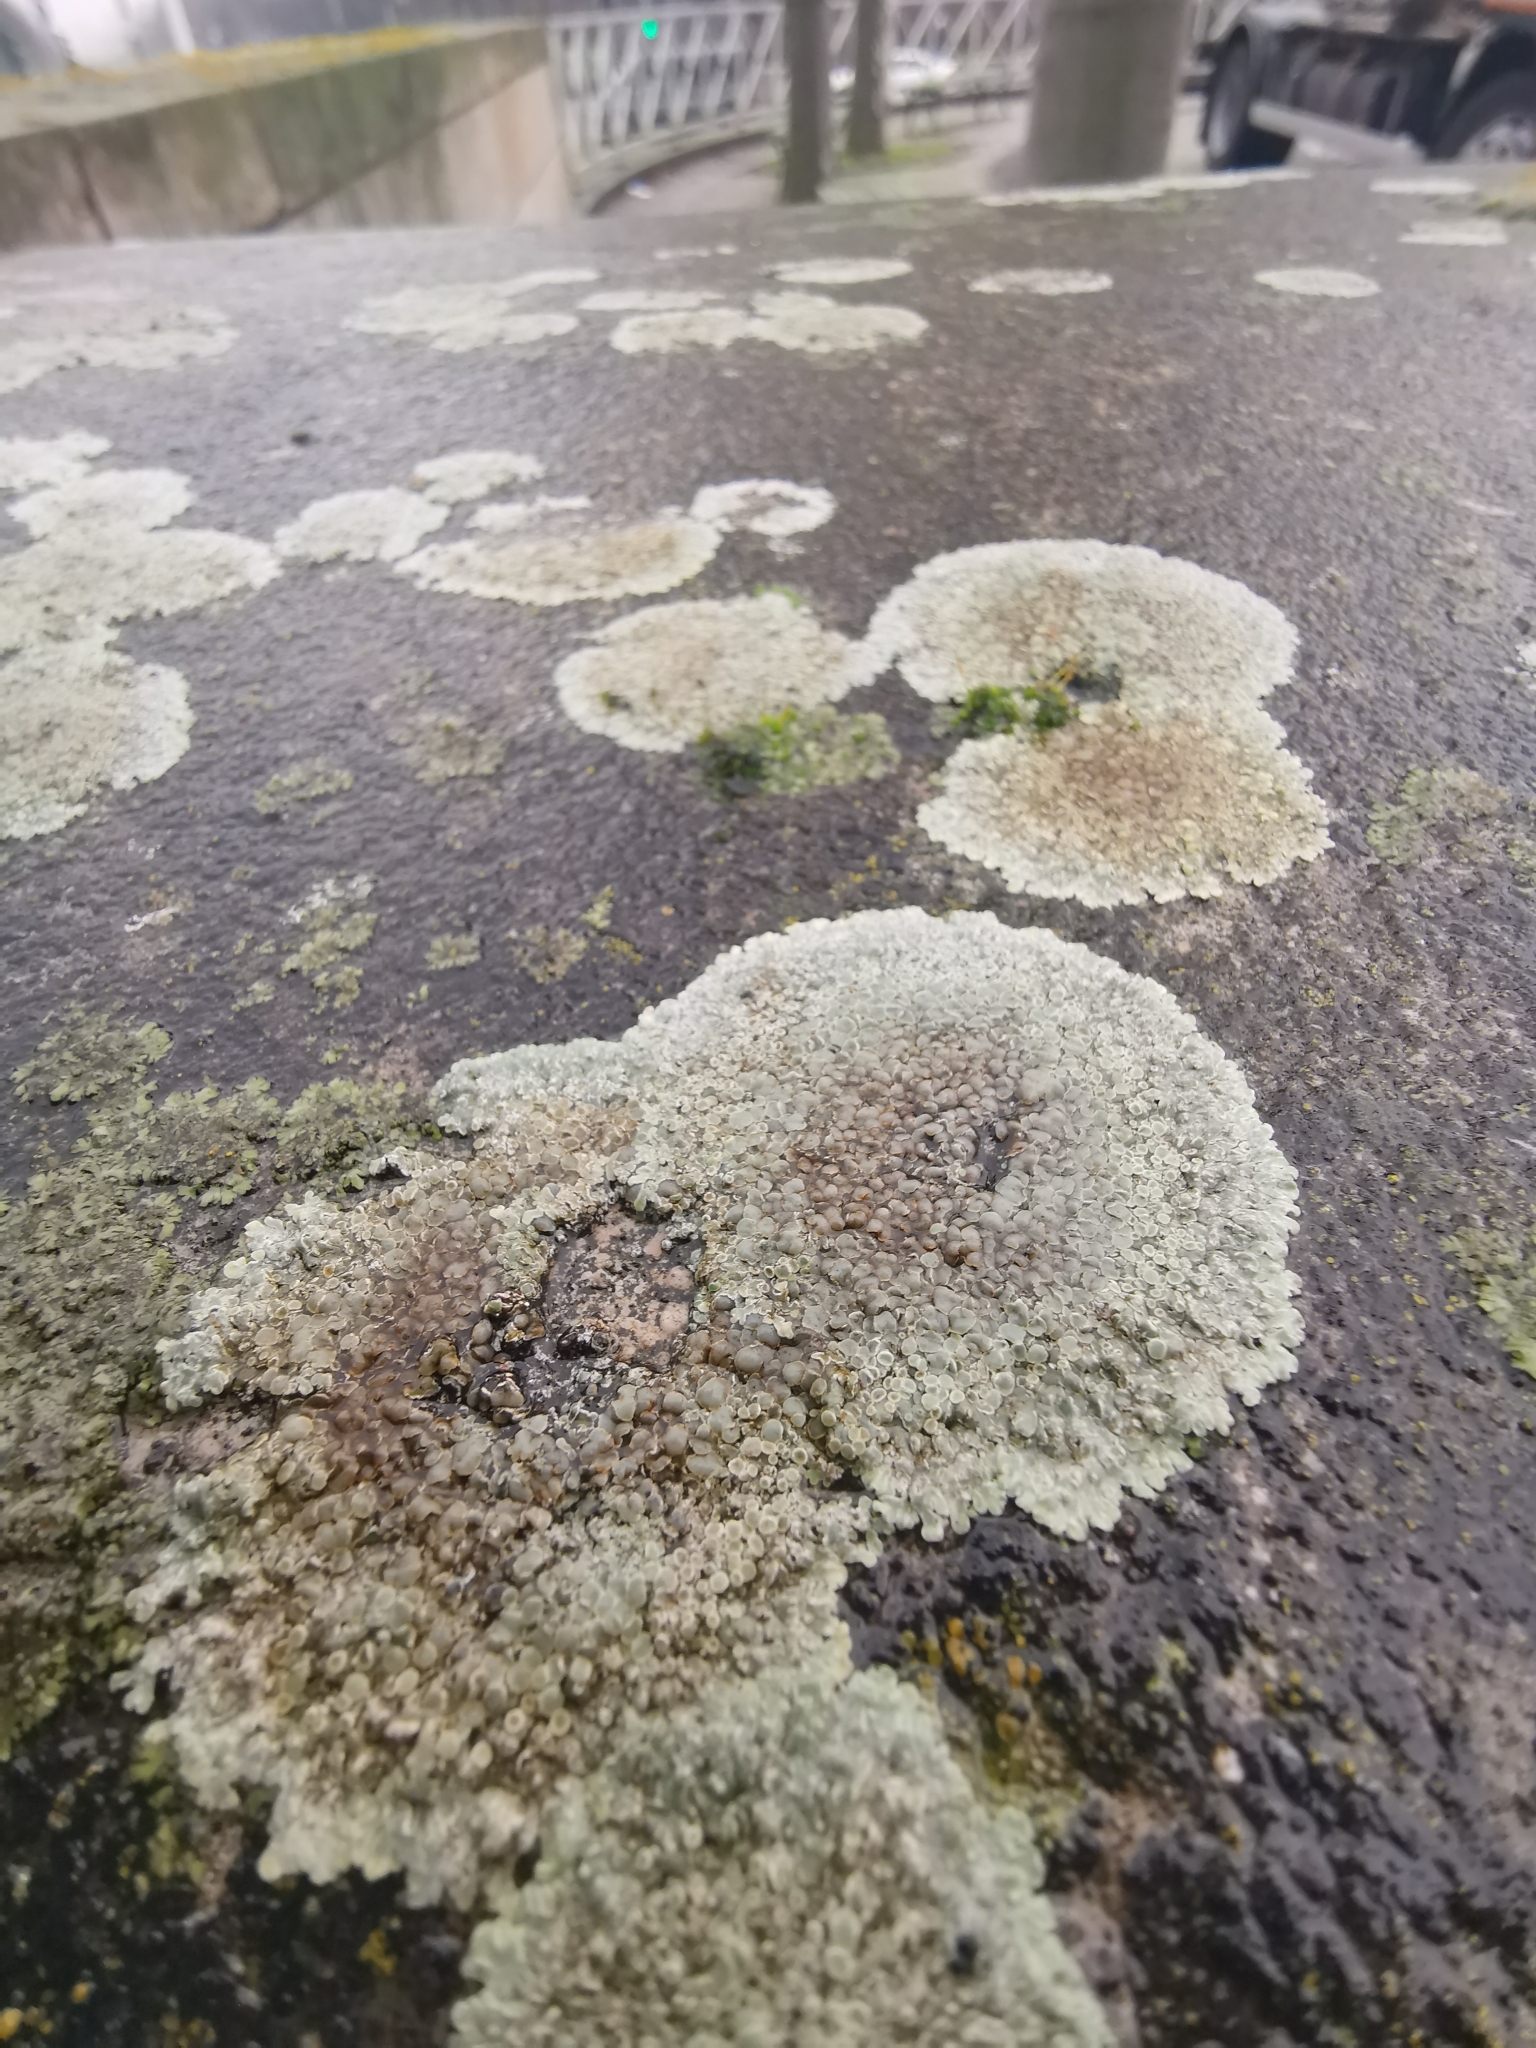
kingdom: Fungi
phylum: Ascomycota
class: Lecanoromycetes
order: Lecanorales
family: Lecanoraceae
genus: Protoparmeliopsis
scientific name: Protoparmeliopsis muralis
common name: Stonewall rim lichen
